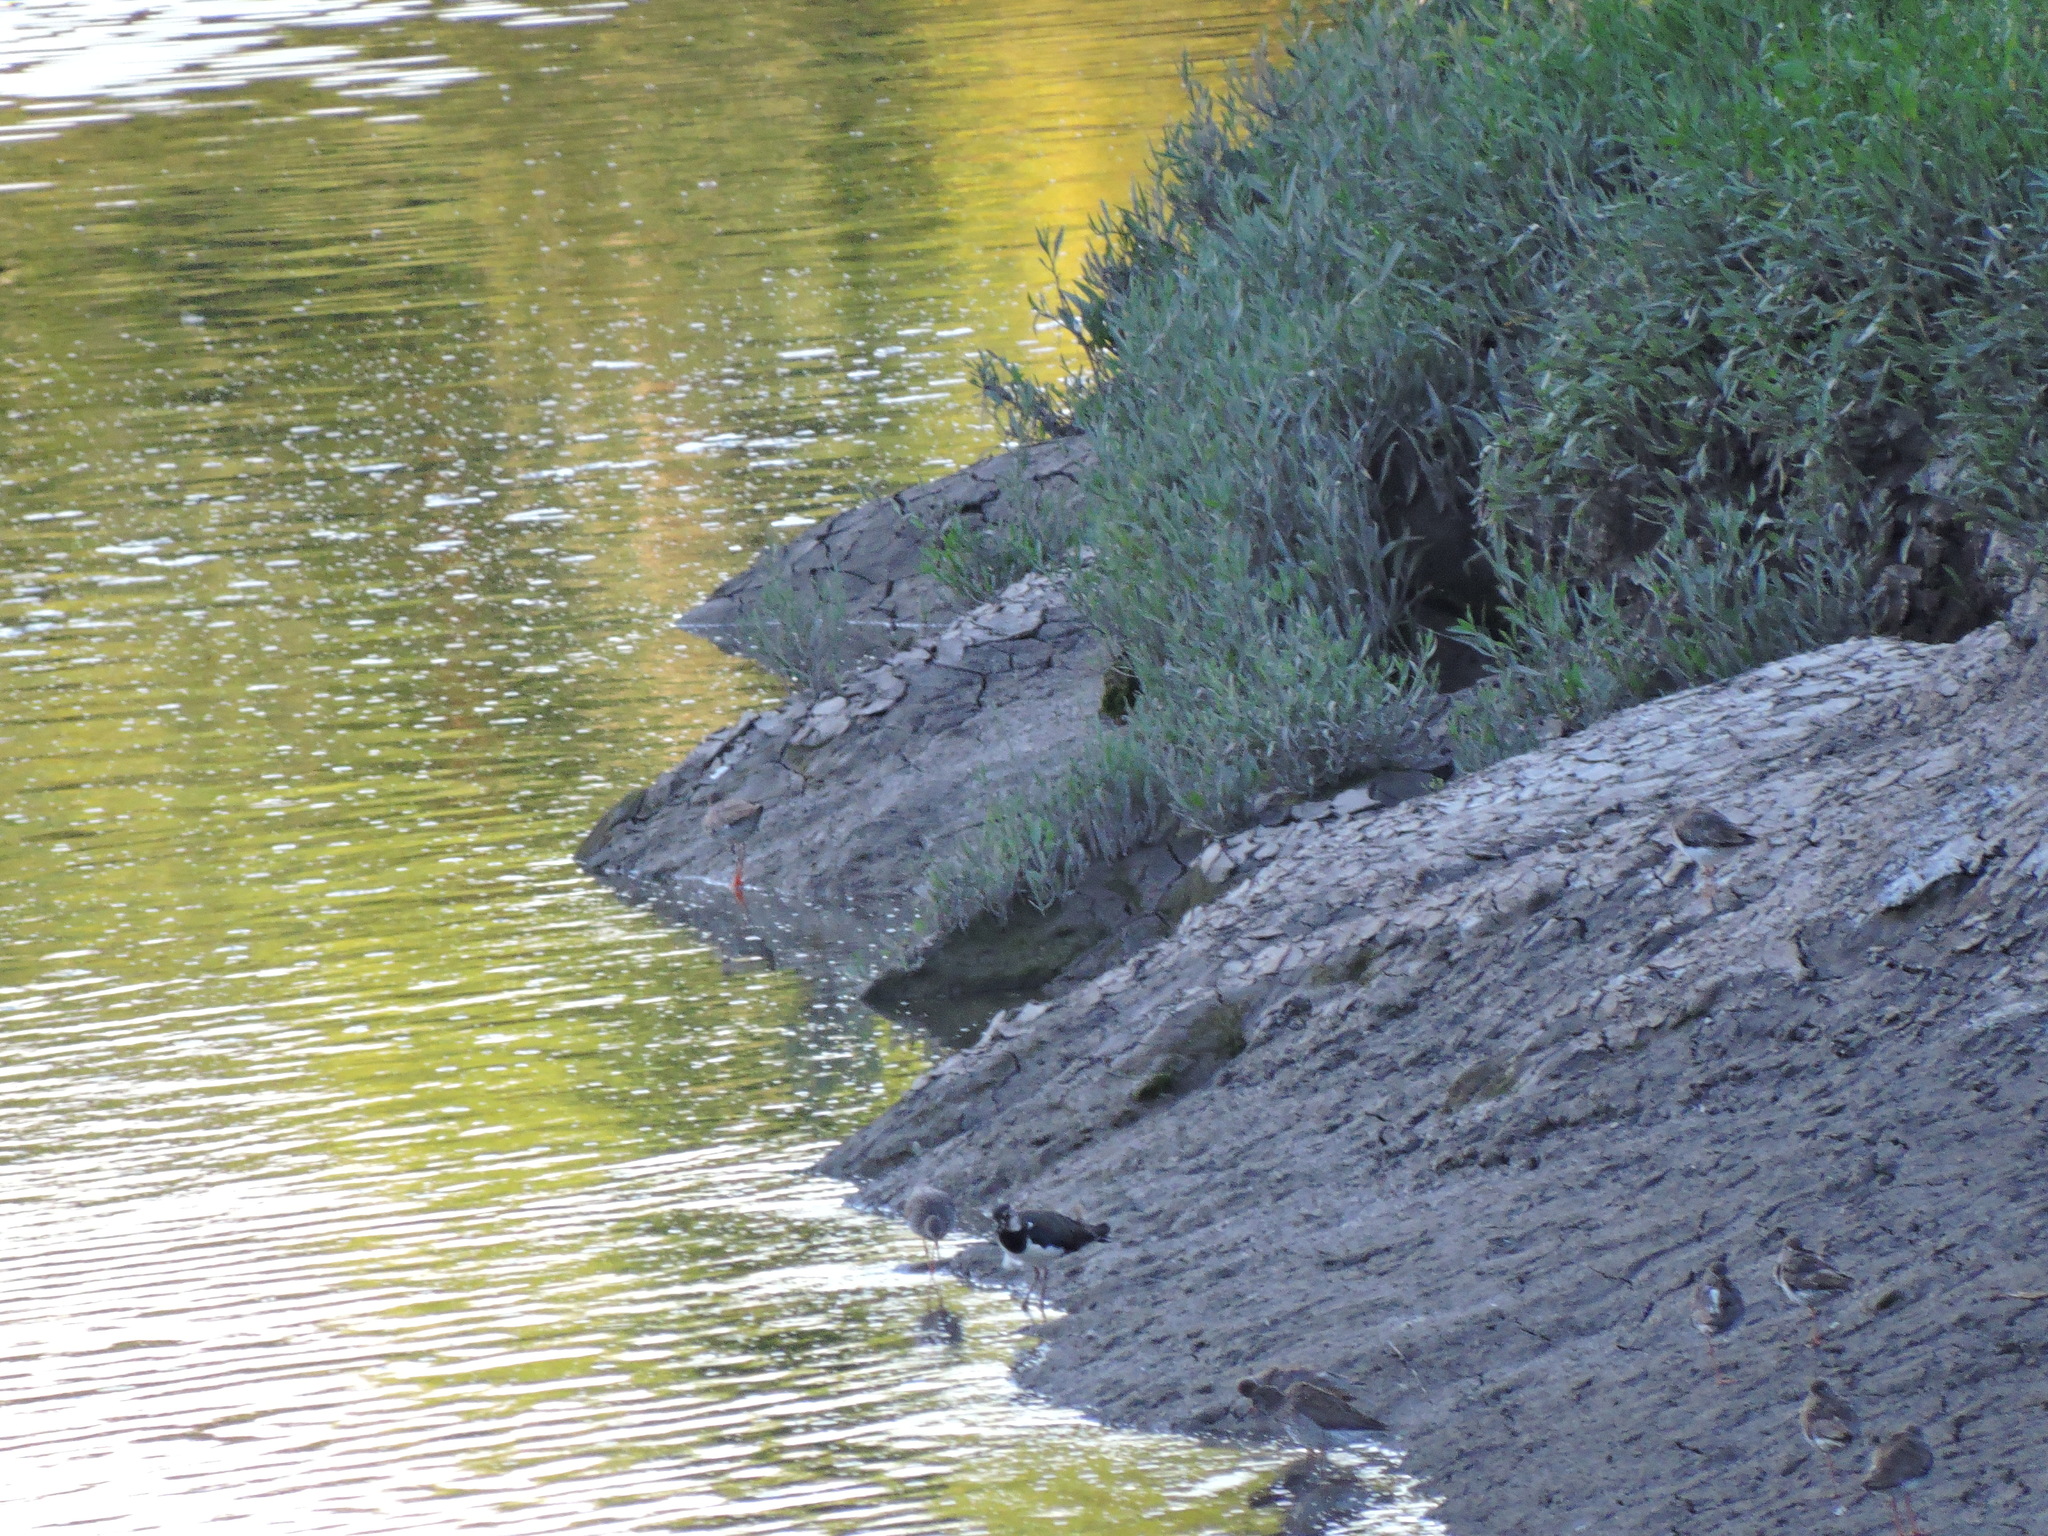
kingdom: Animalia
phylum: Chordata
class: Aves
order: Charadriiformes
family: Charadriidae
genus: Vanellus
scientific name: Vanellus vanellus
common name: Northern lapwing
